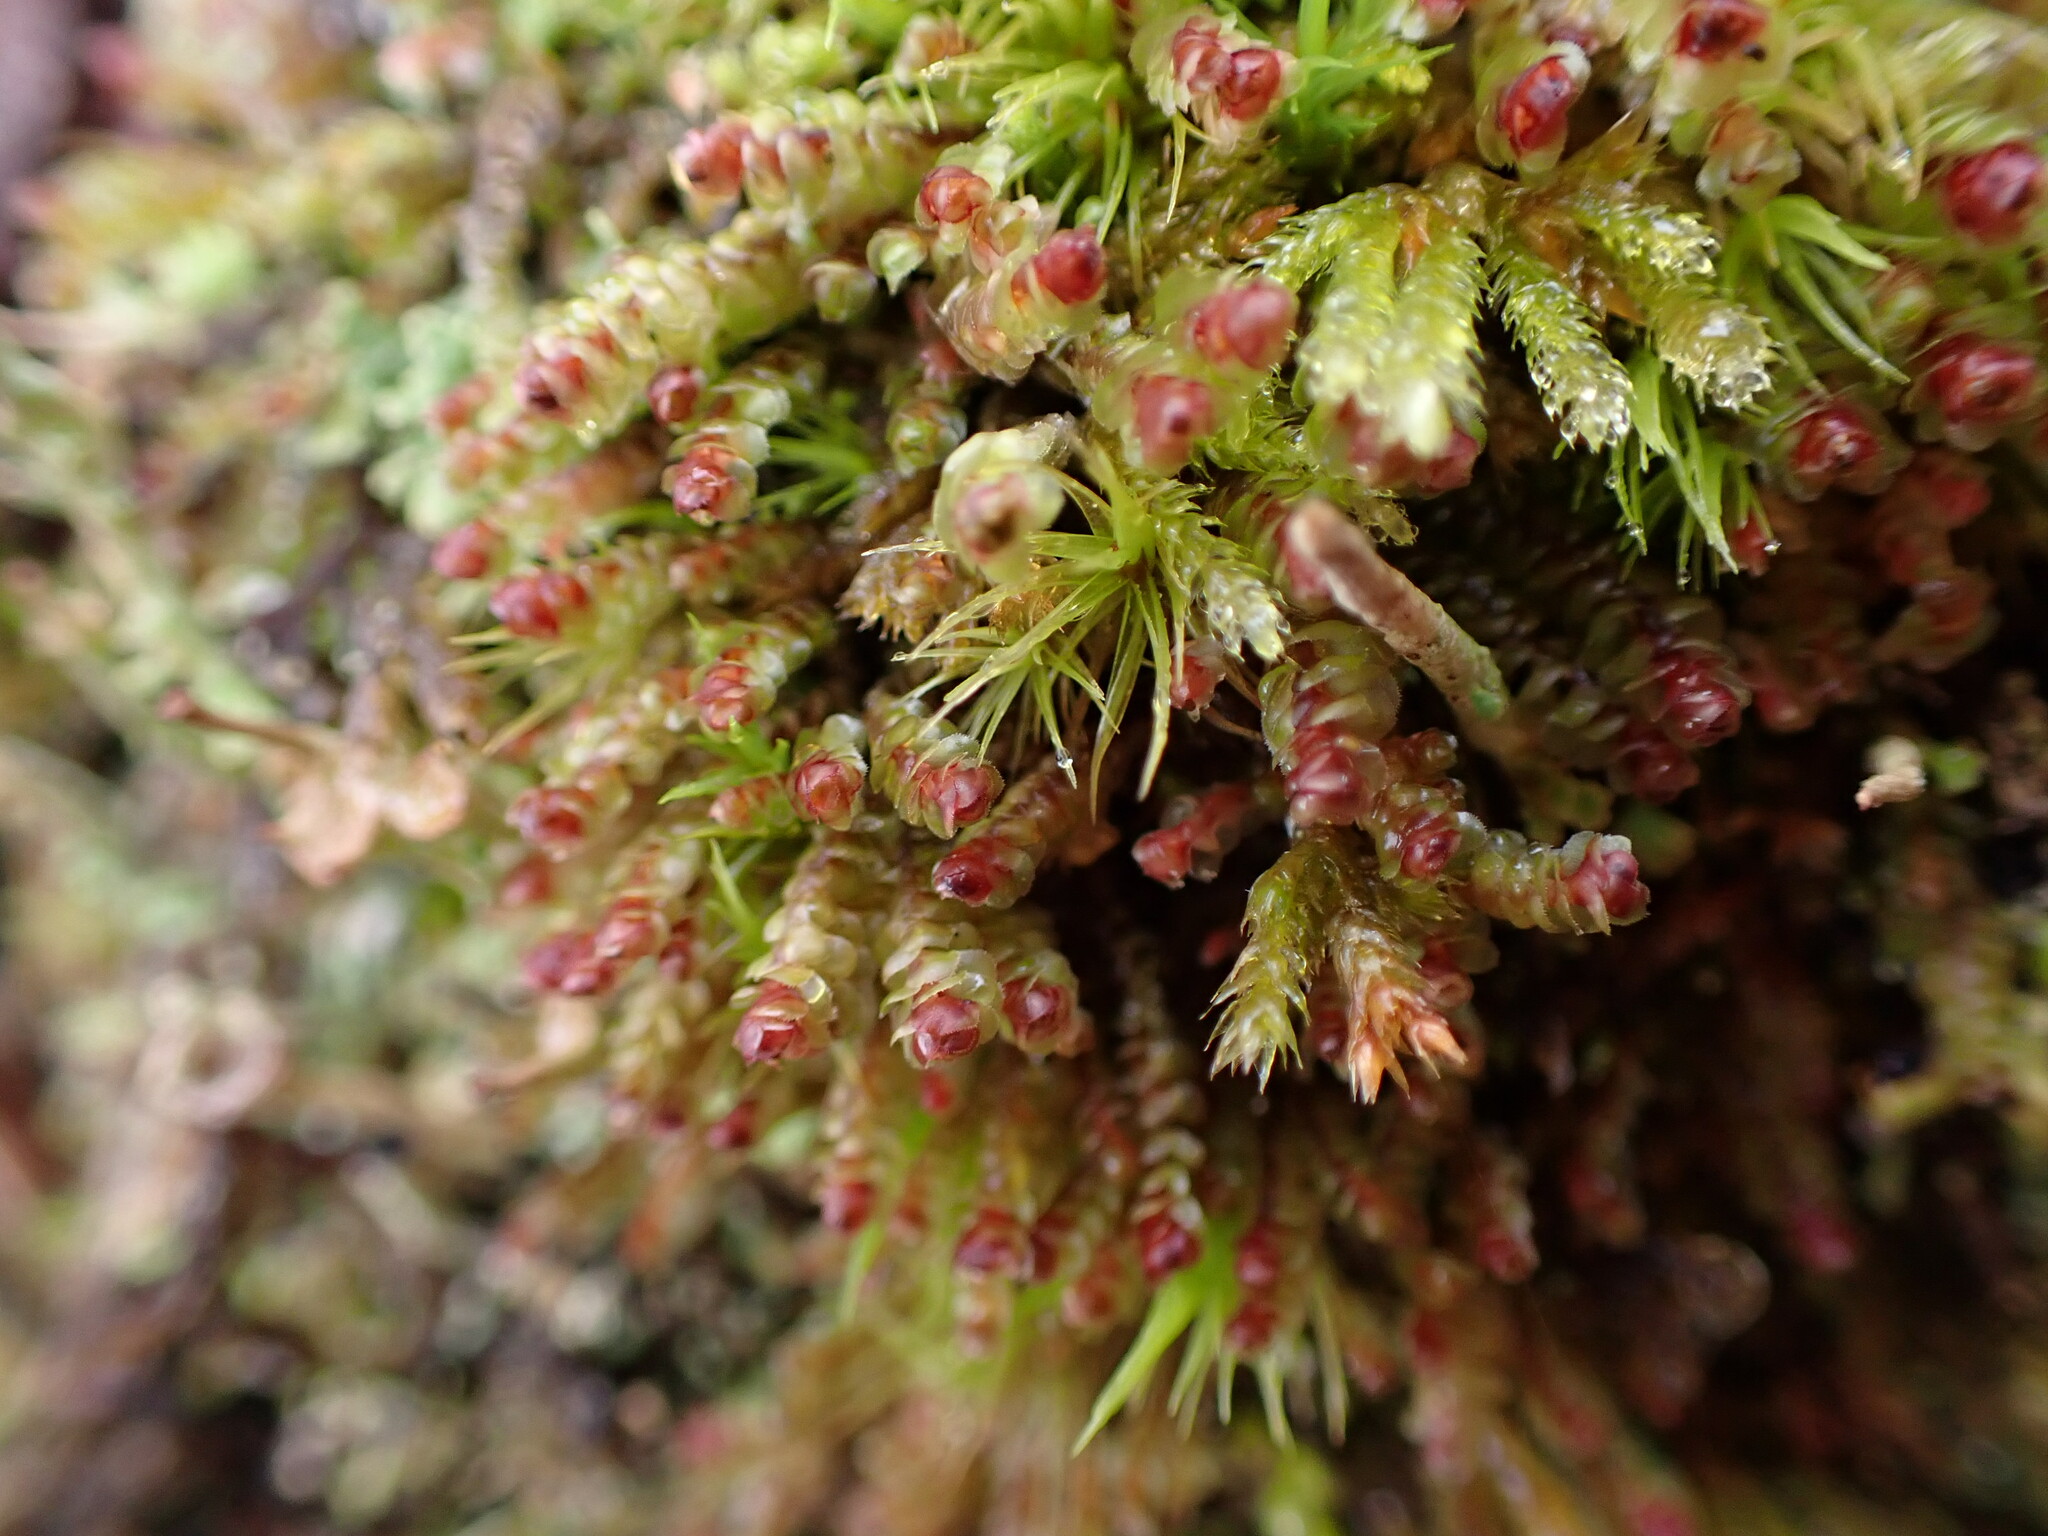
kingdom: Plantae
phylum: Marchantiophyta
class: Jungermanniopsida
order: Jungermanniales
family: Scapaniaceae
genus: Scapania
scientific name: Scapania americana
